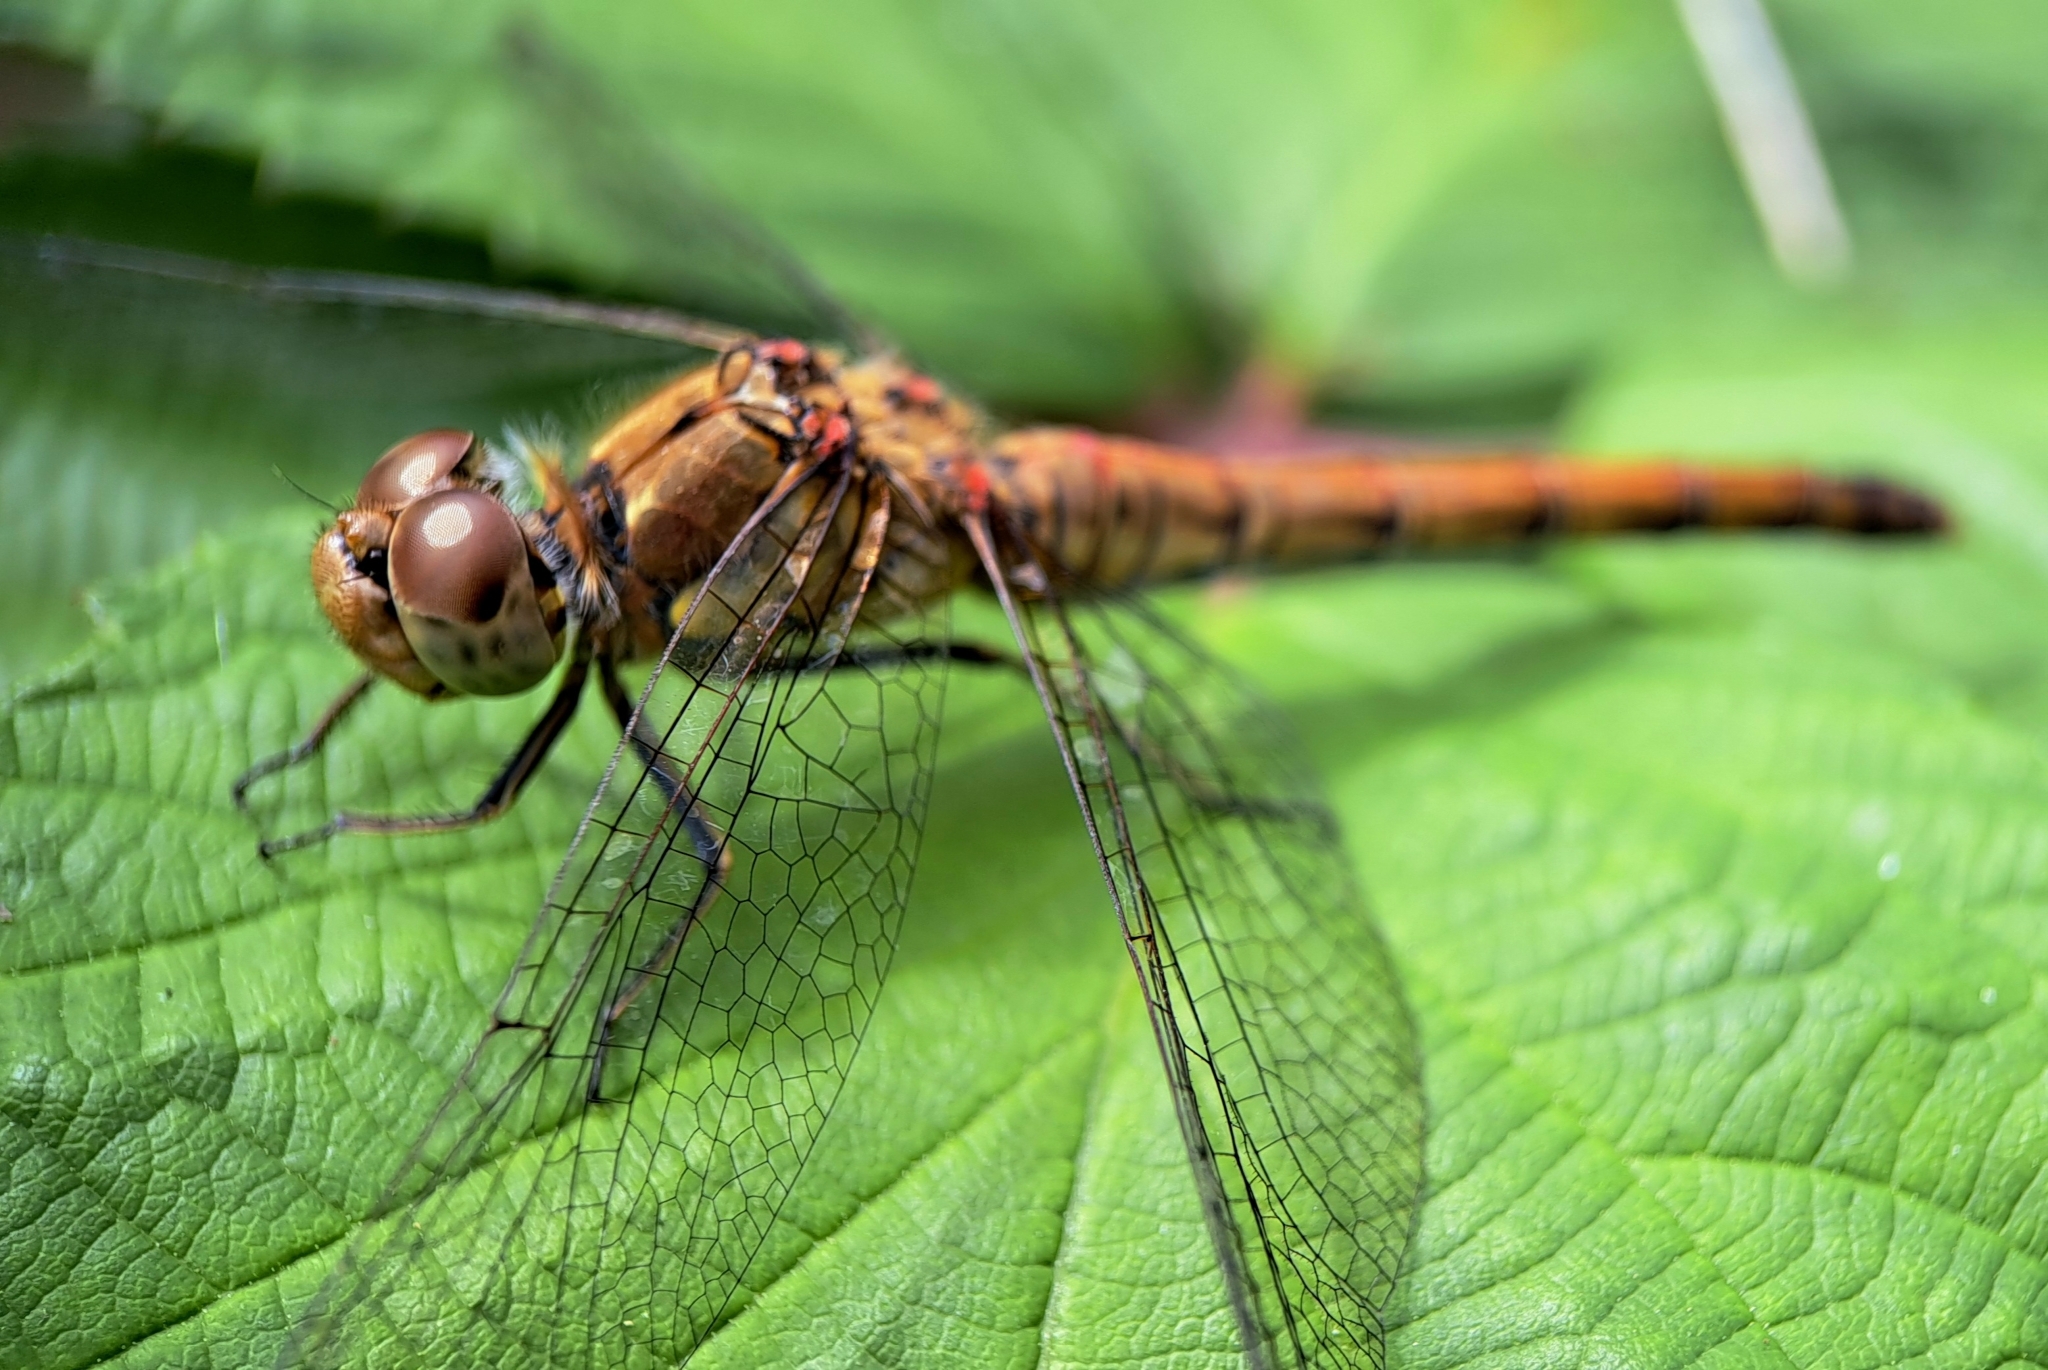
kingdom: Animalia
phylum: Arthropoda
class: Insecta
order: Odonata
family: Libellulidae
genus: Sympetrum
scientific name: Sympetrum striolatum
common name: Common darter
